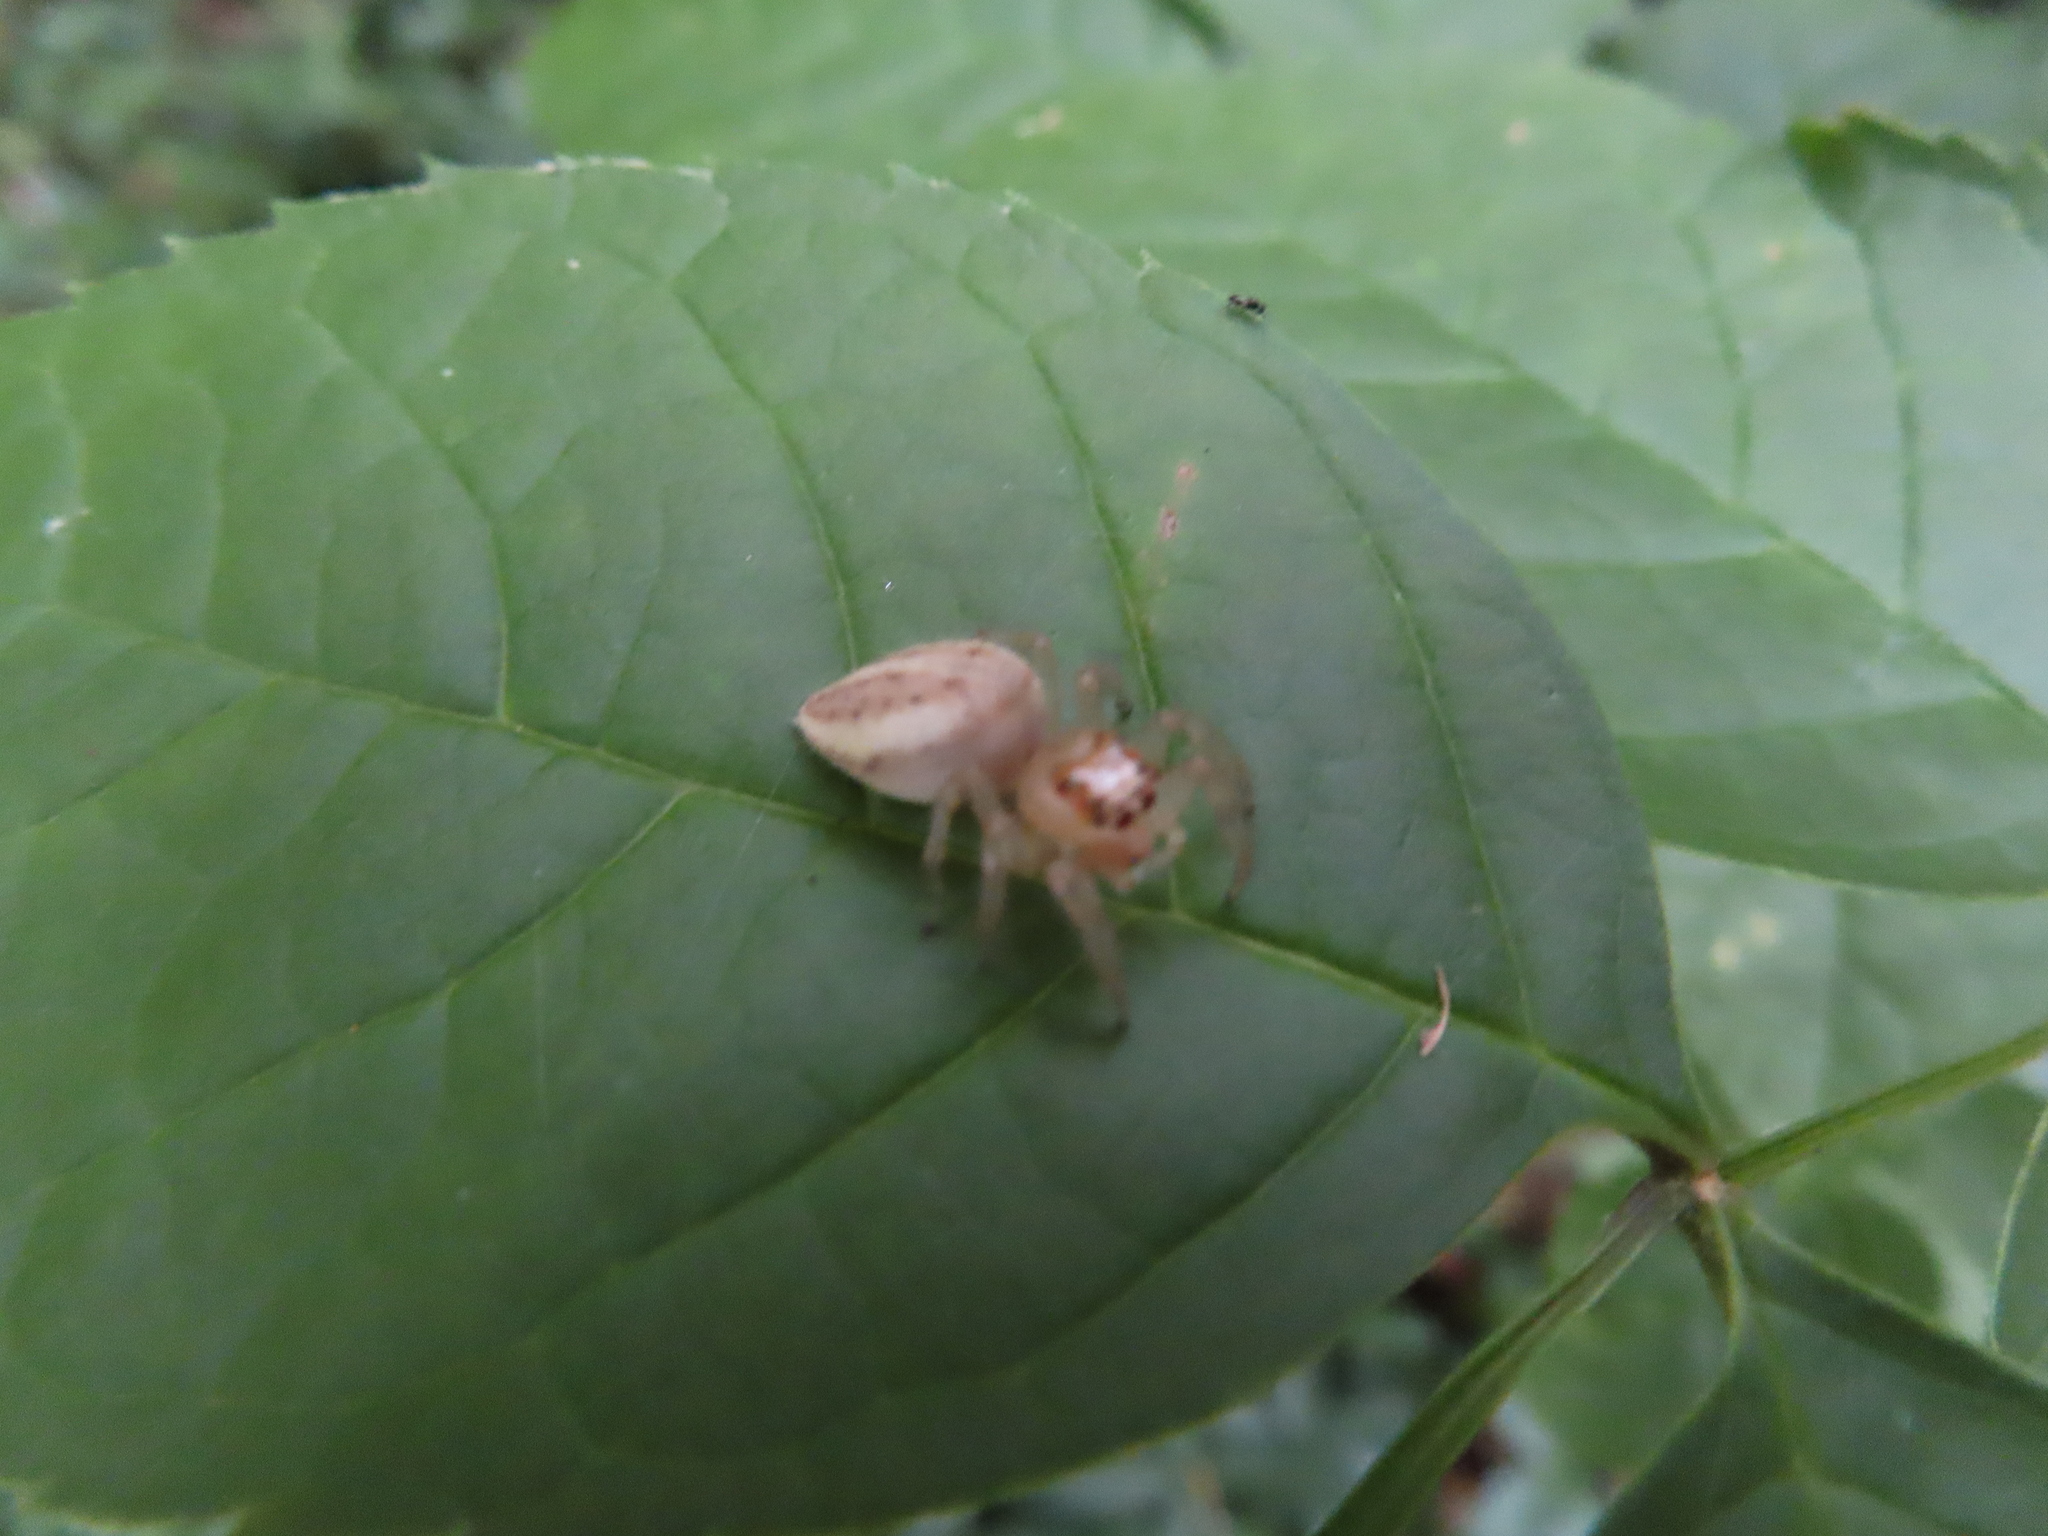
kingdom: Animalia
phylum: Arthropoda
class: Arachnida
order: Araneae
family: Salticidae
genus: Colonus
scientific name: Colonus sylvanus
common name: Jumping spiders
